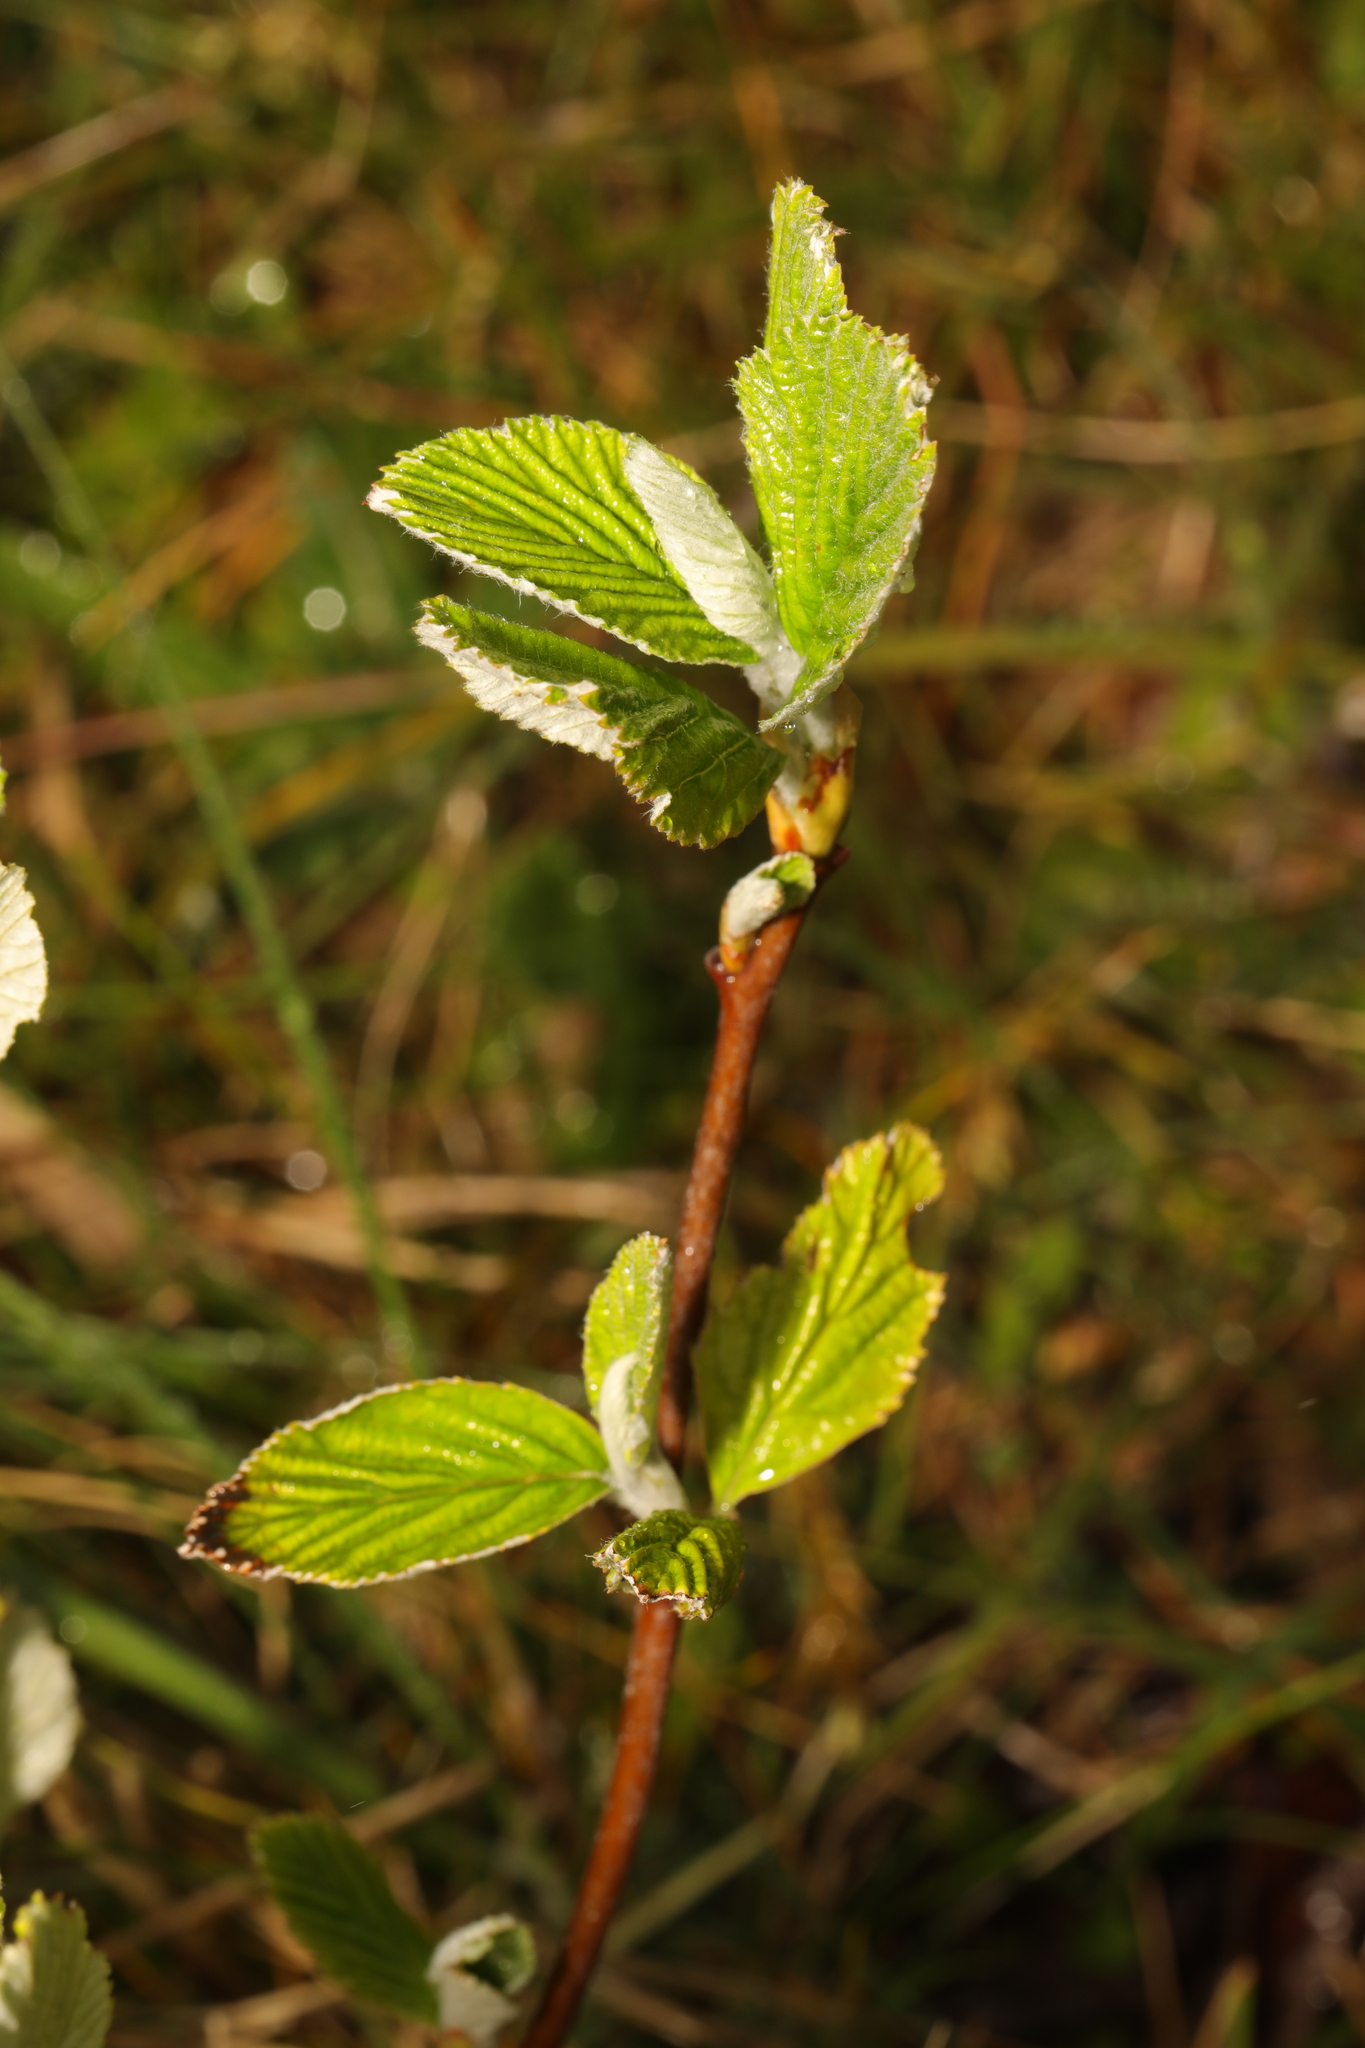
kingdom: Plantae
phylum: Tracheophyta
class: Magnoliopsida
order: Rosales
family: Rosaceae
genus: Aria
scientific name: Aria edulis
